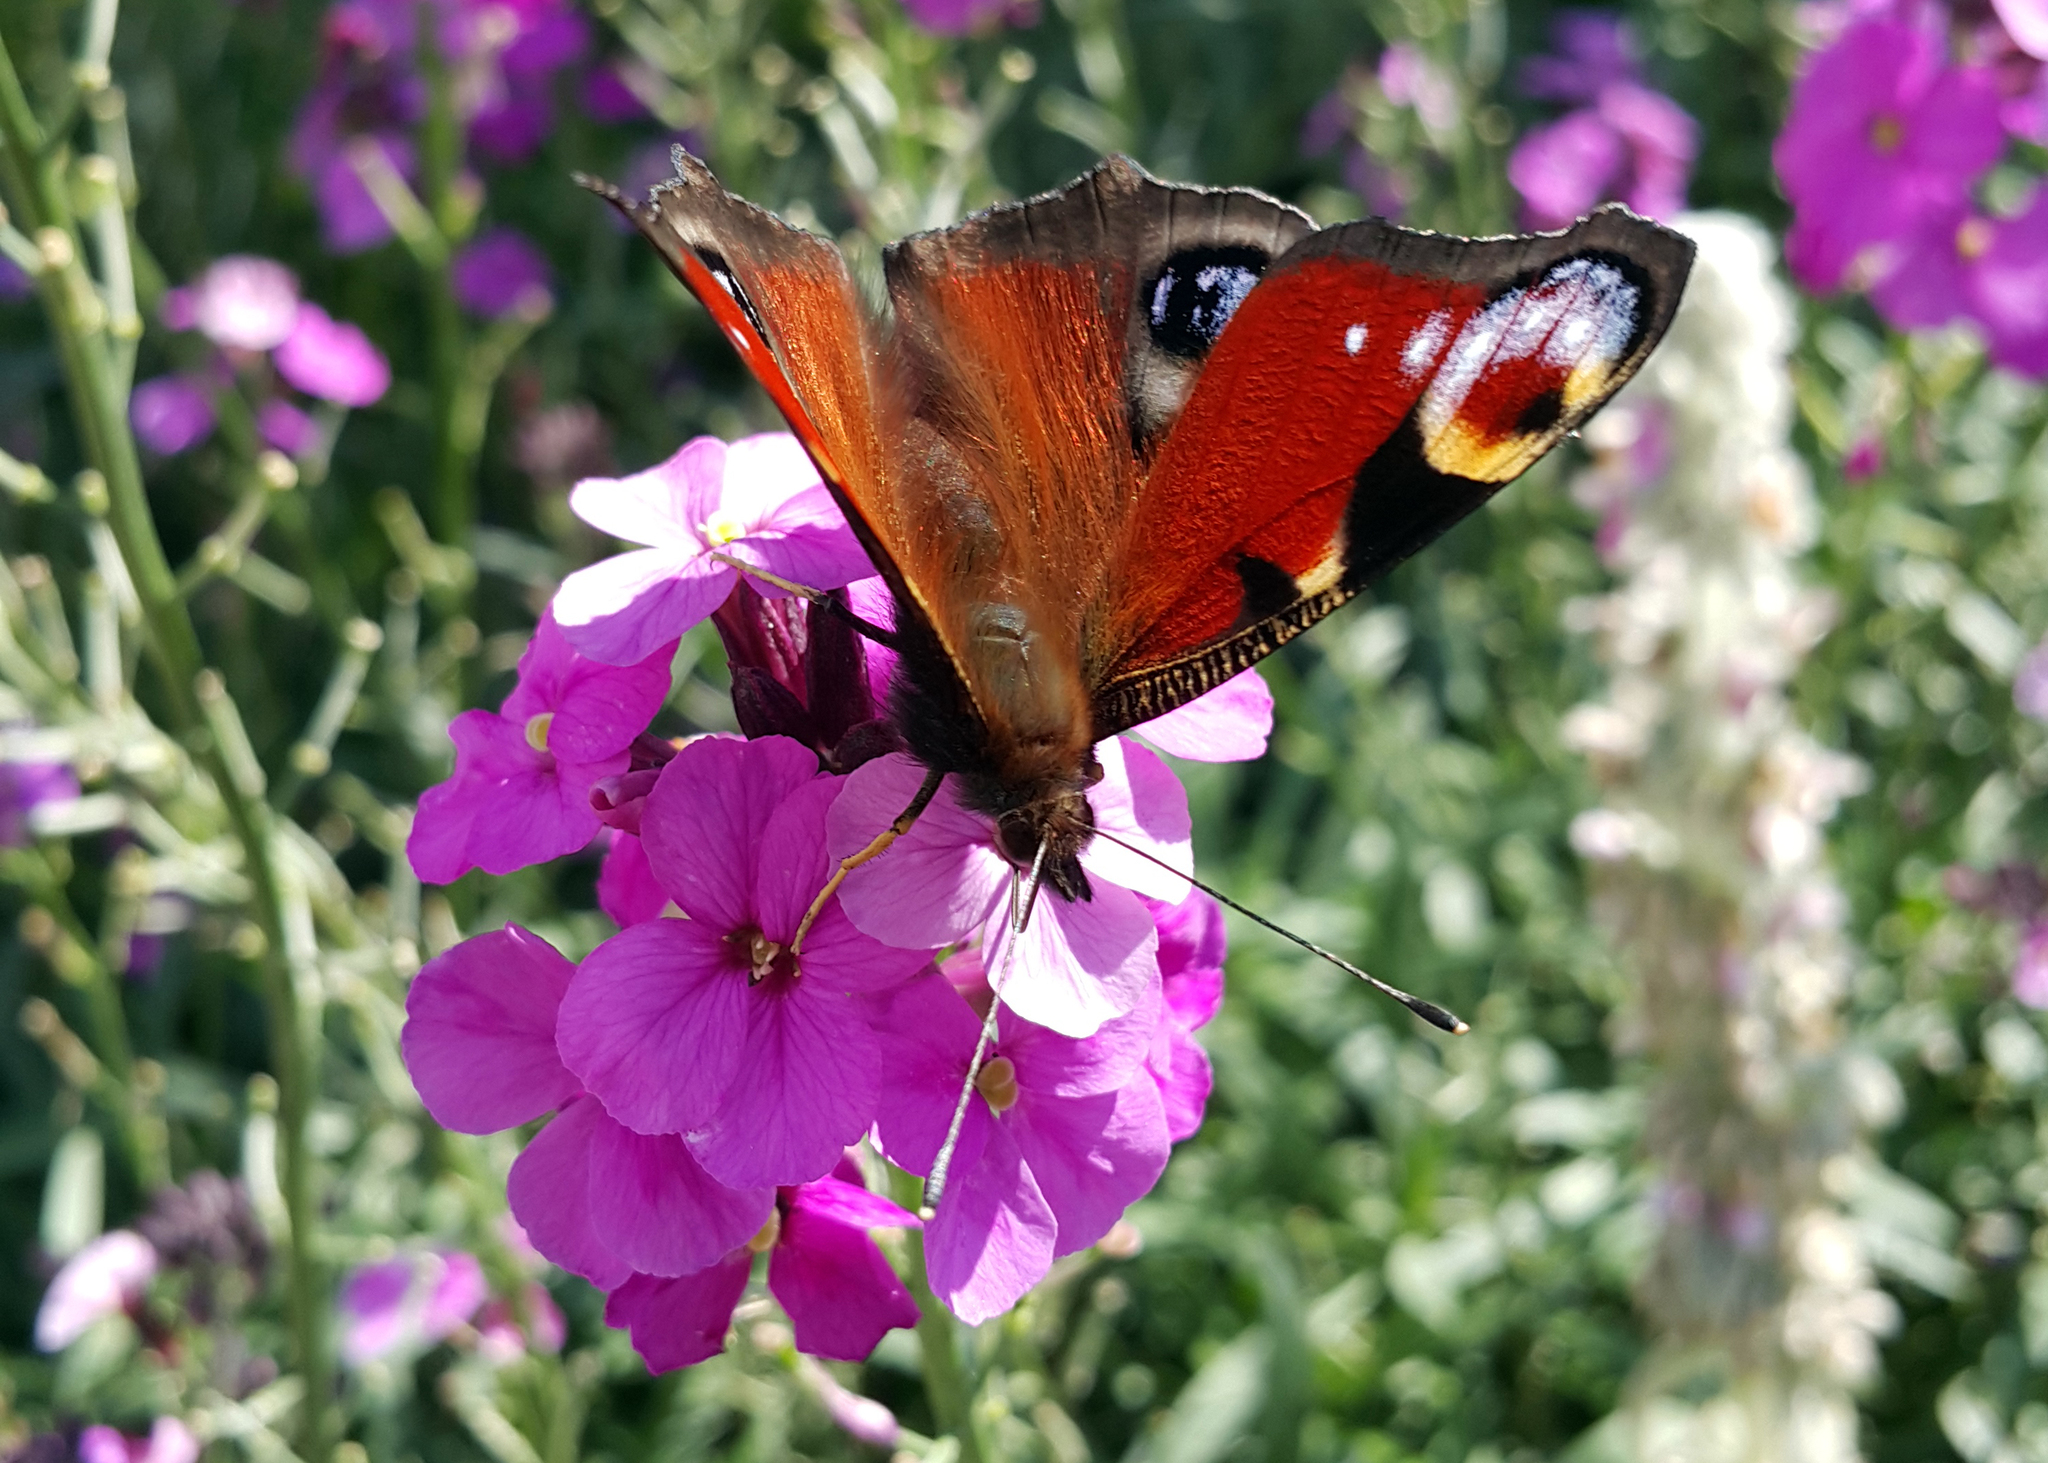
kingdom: Animalia
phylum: Arthropoda
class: Insecta
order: Lepidoptera
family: Nymphalidae
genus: Aglais
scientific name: Aglais io
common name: Peacock
